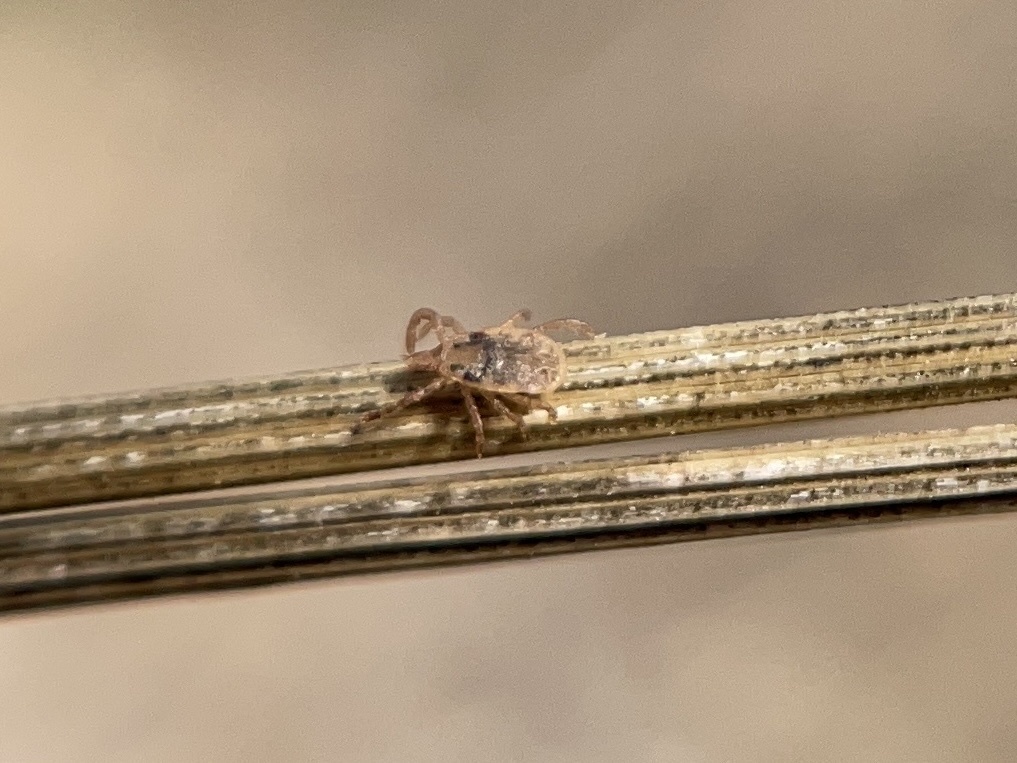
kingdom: Animalia
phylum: Arthropoda
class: Arachnida
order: Ixodida
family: Ixodidae
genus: Amblyomma
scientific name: Amblyomma maculatum
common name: Gulf coast tick
